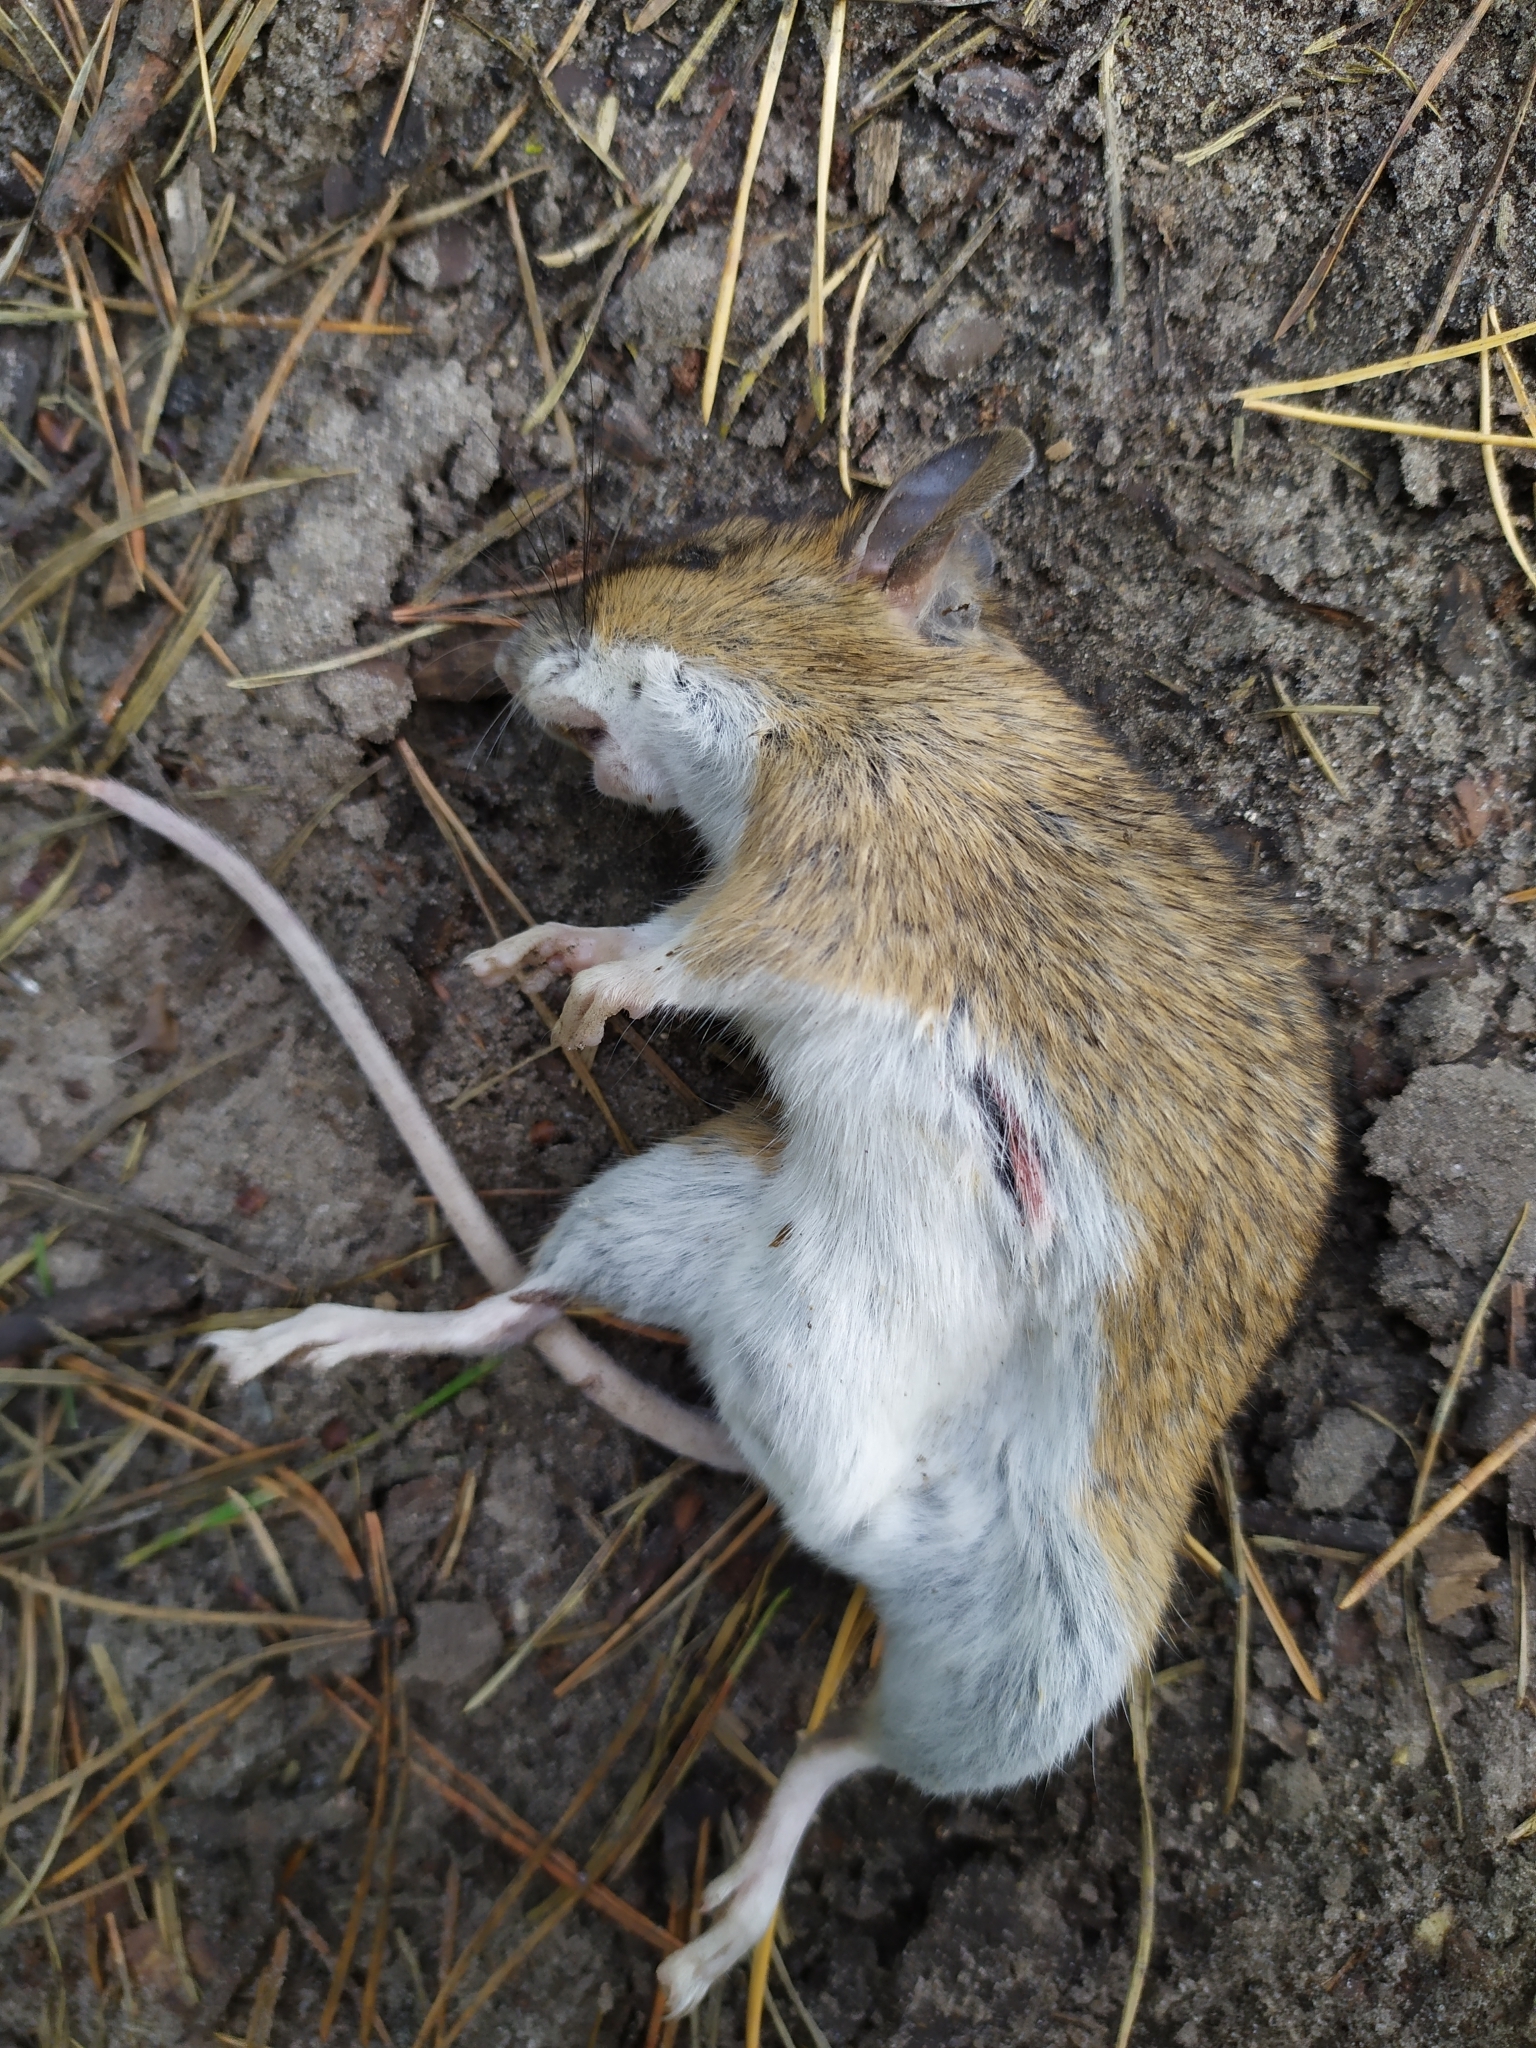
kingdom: Animalia
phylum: Chordata
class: Mammalia
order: Rodentia
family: Muridae
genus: Apodemus
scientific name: Apodemus flavicollis
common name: Yellow-necked field mouse
